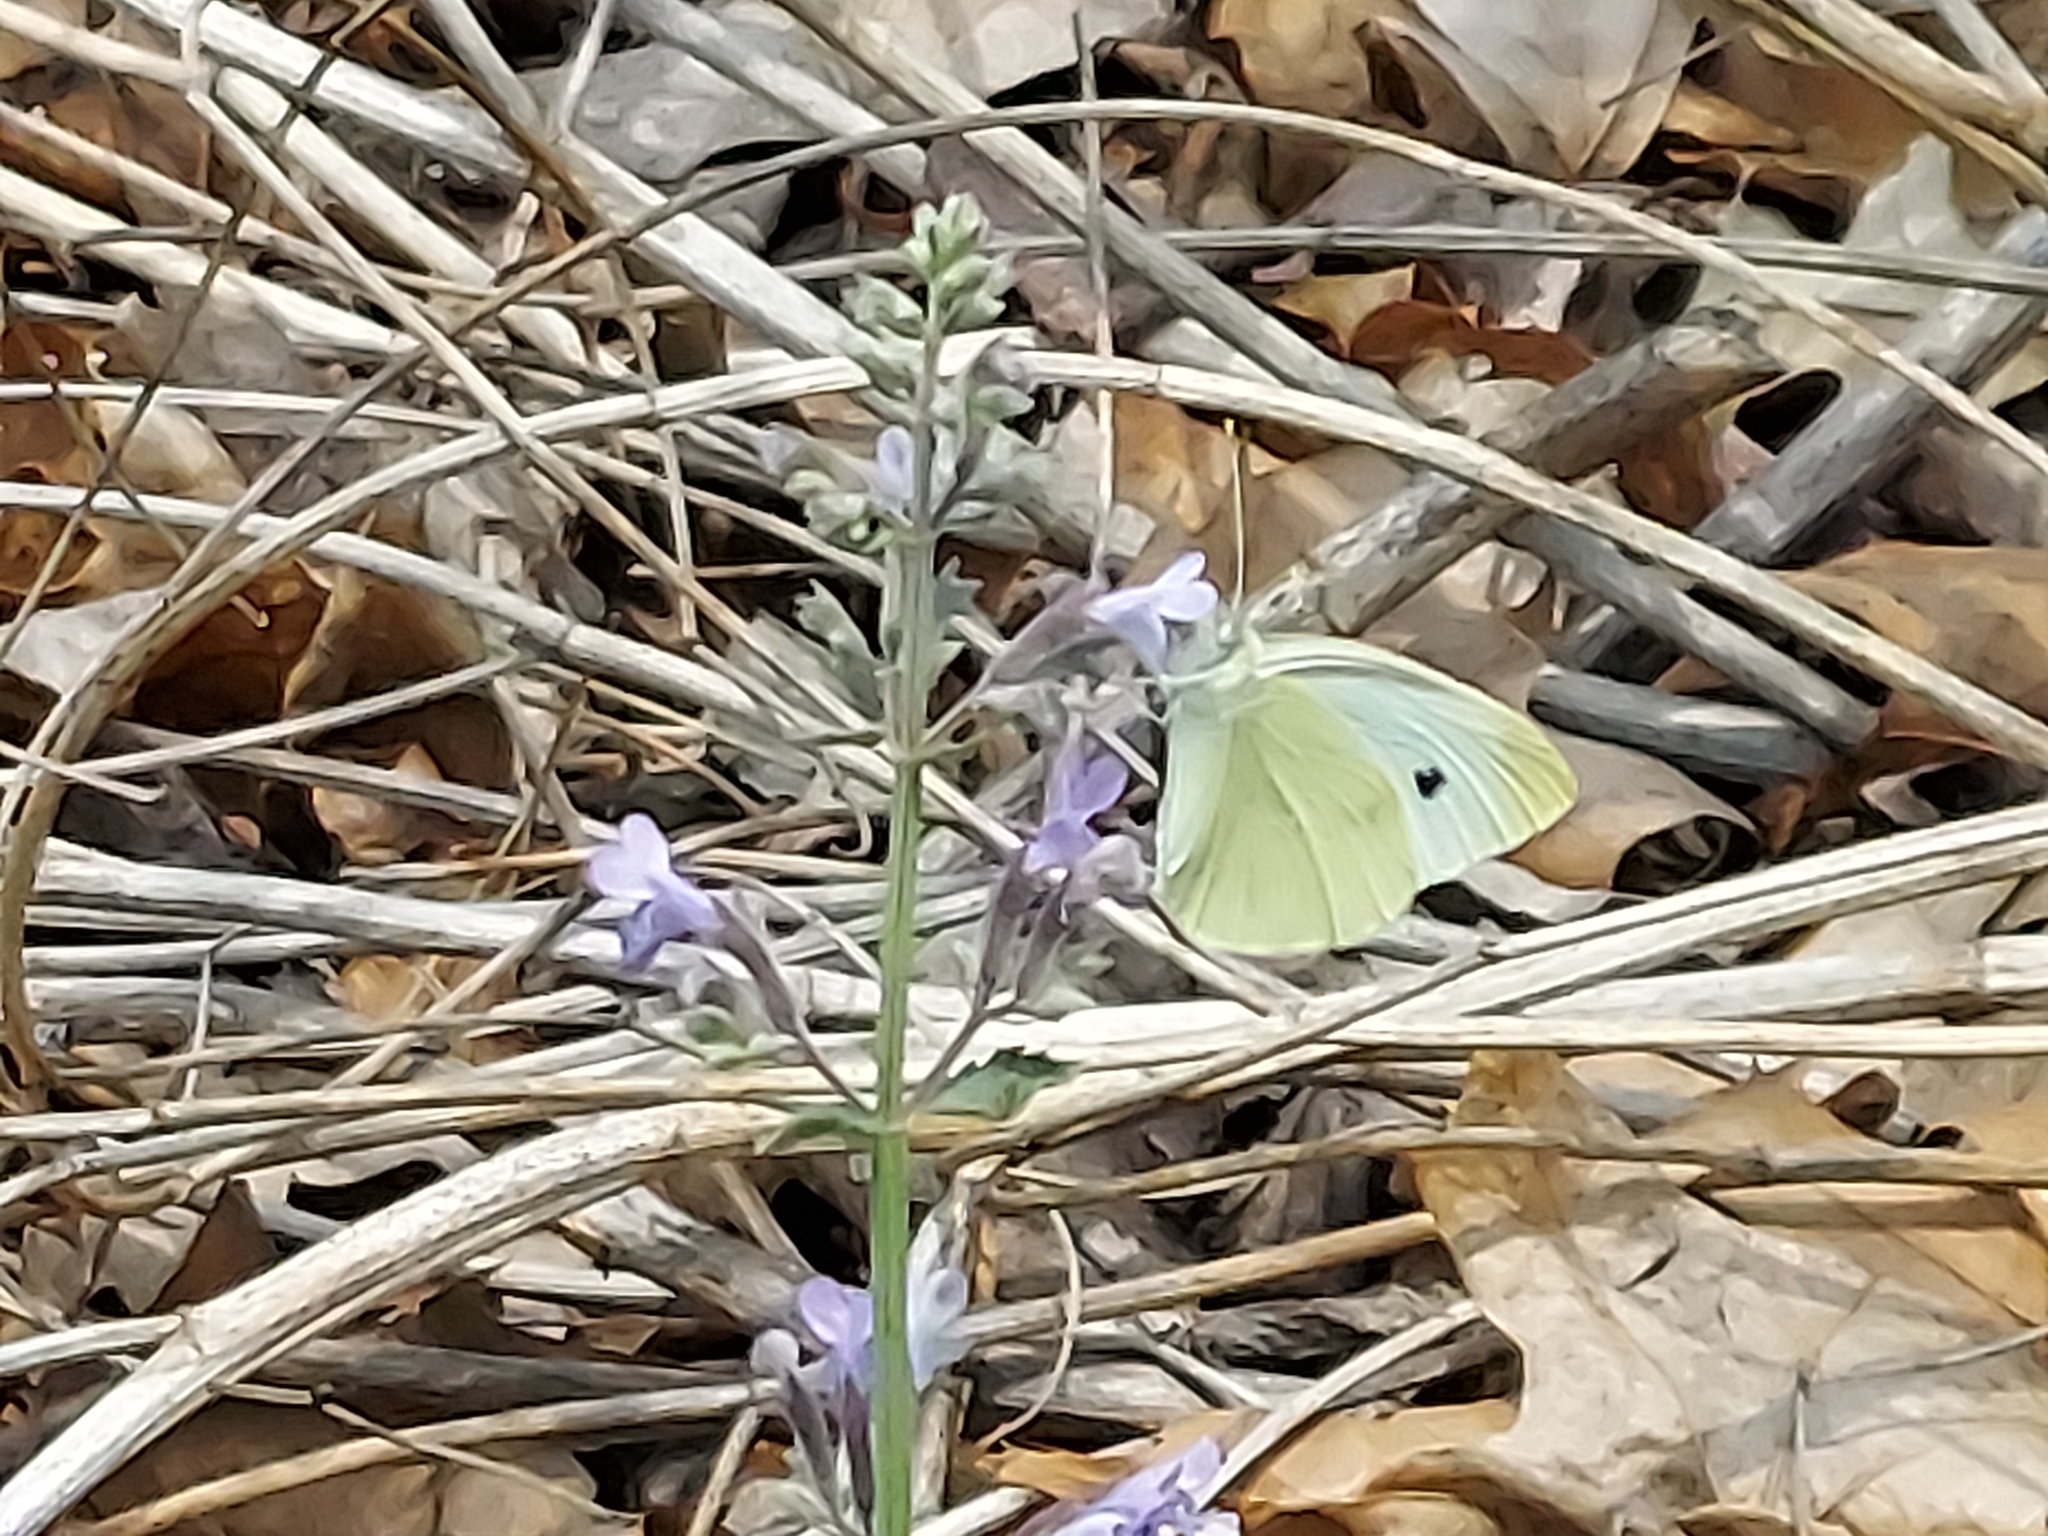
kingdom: Animalia
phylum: Arthropoda
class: Insecta
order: Lepidoptera
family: Pieridae
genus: Pieris
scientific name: Pieris rapae
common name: Small white
